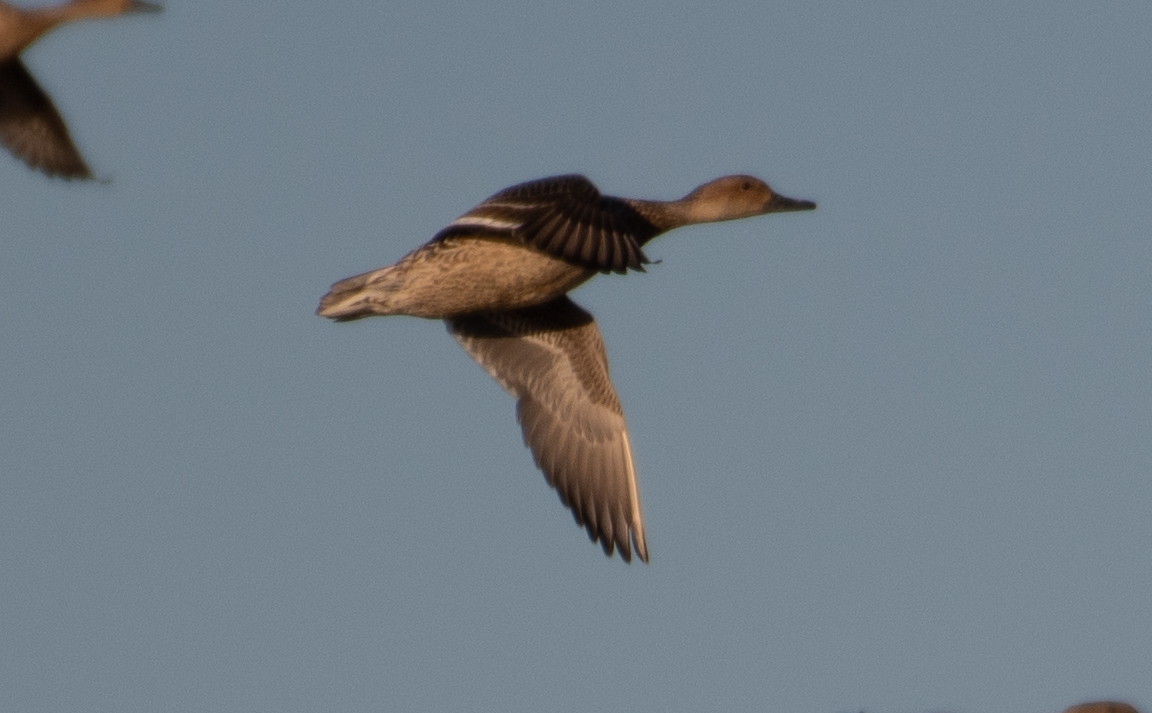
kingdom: Animalia
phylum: Chordata
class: Aves
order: Anseriformes
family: Anatidae
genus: Anas
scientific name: Anas acuta
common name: Northern pintail
